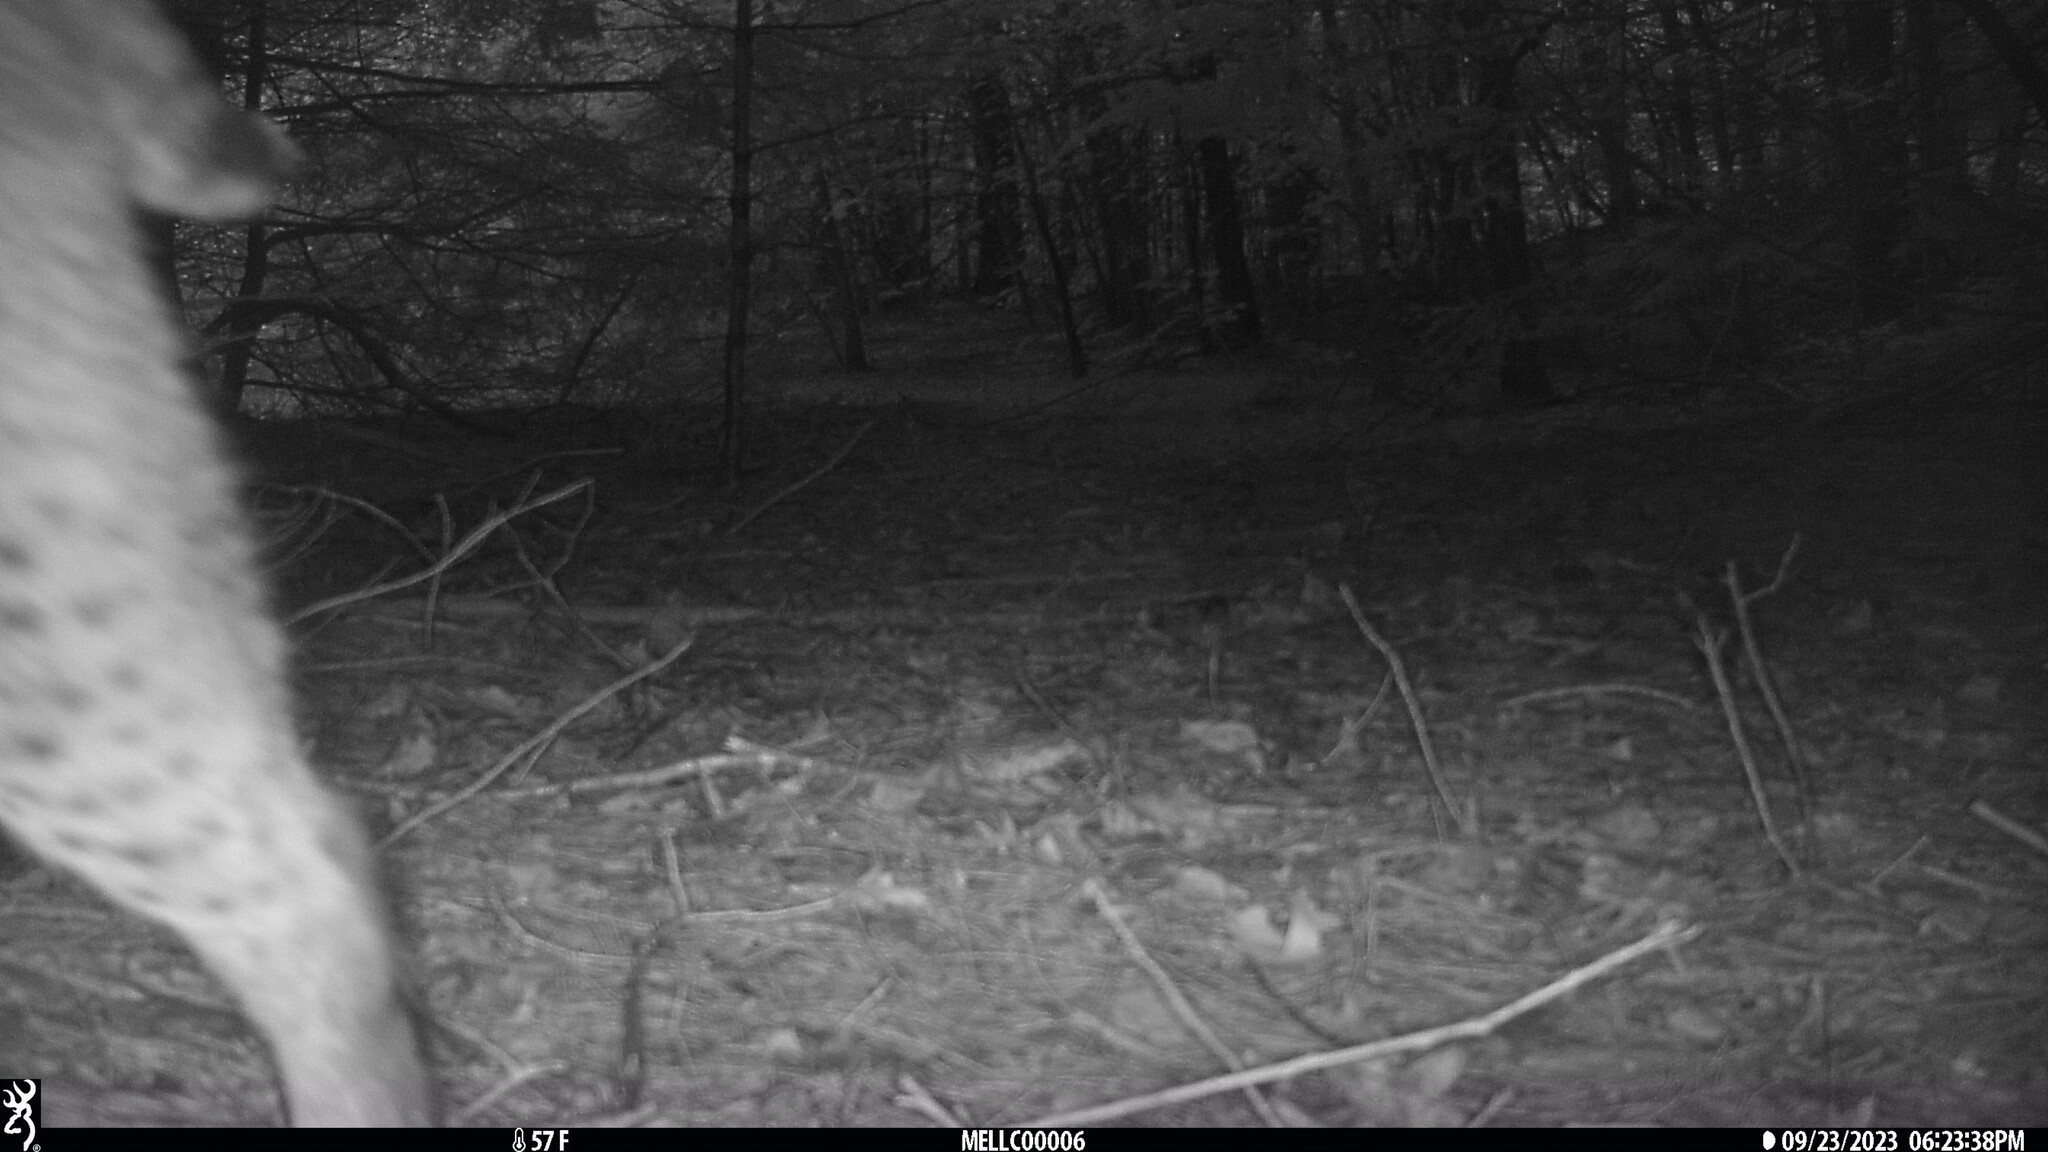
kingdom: Animalia
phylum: Chordata
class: Mammalia
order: Carnivora
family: Felidae
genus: Lynx
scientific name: Lynx rufus
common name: Bobcat
